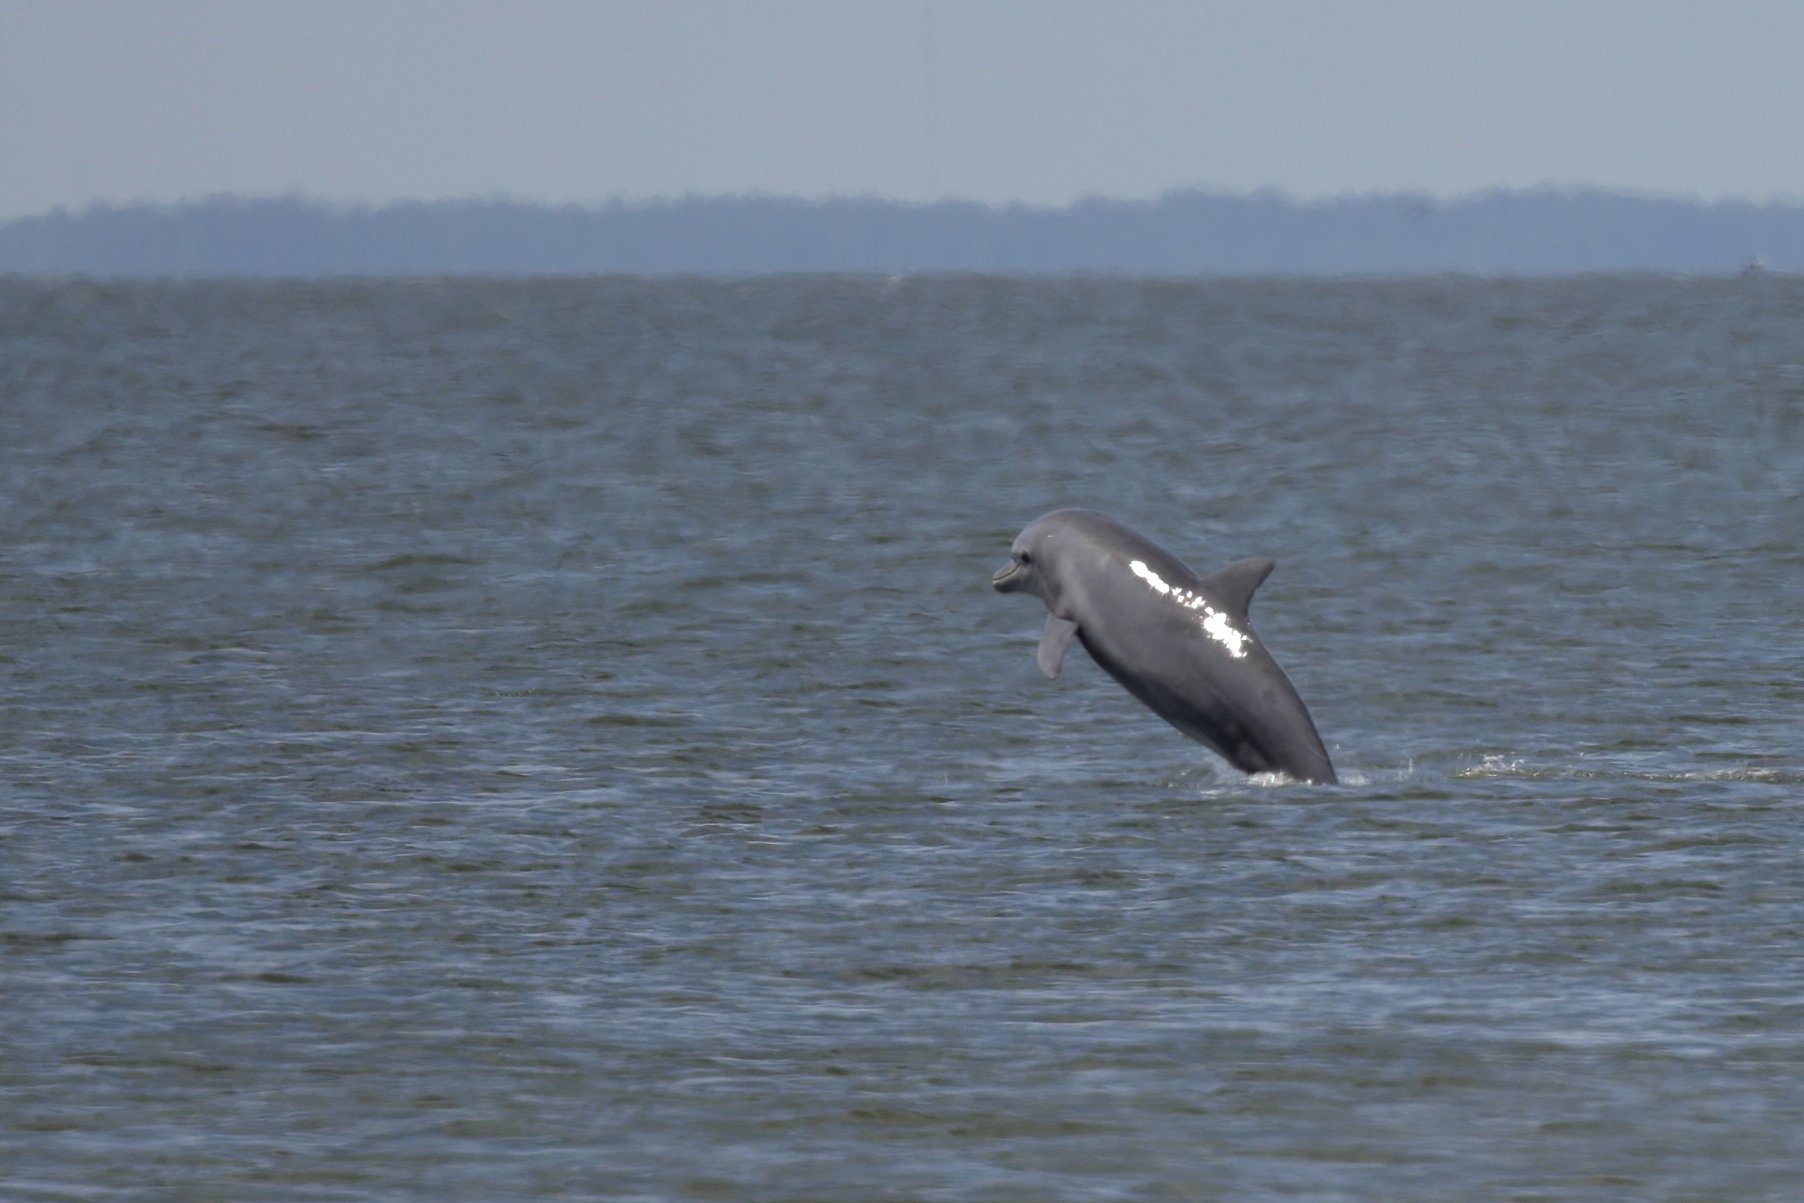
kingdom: Animalia
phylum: Chordata
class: Mammalia
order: Cetacea
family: Delphinidae
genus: Tursiops
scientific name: Tursiops truncatus
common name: Bottlenose dolphin
